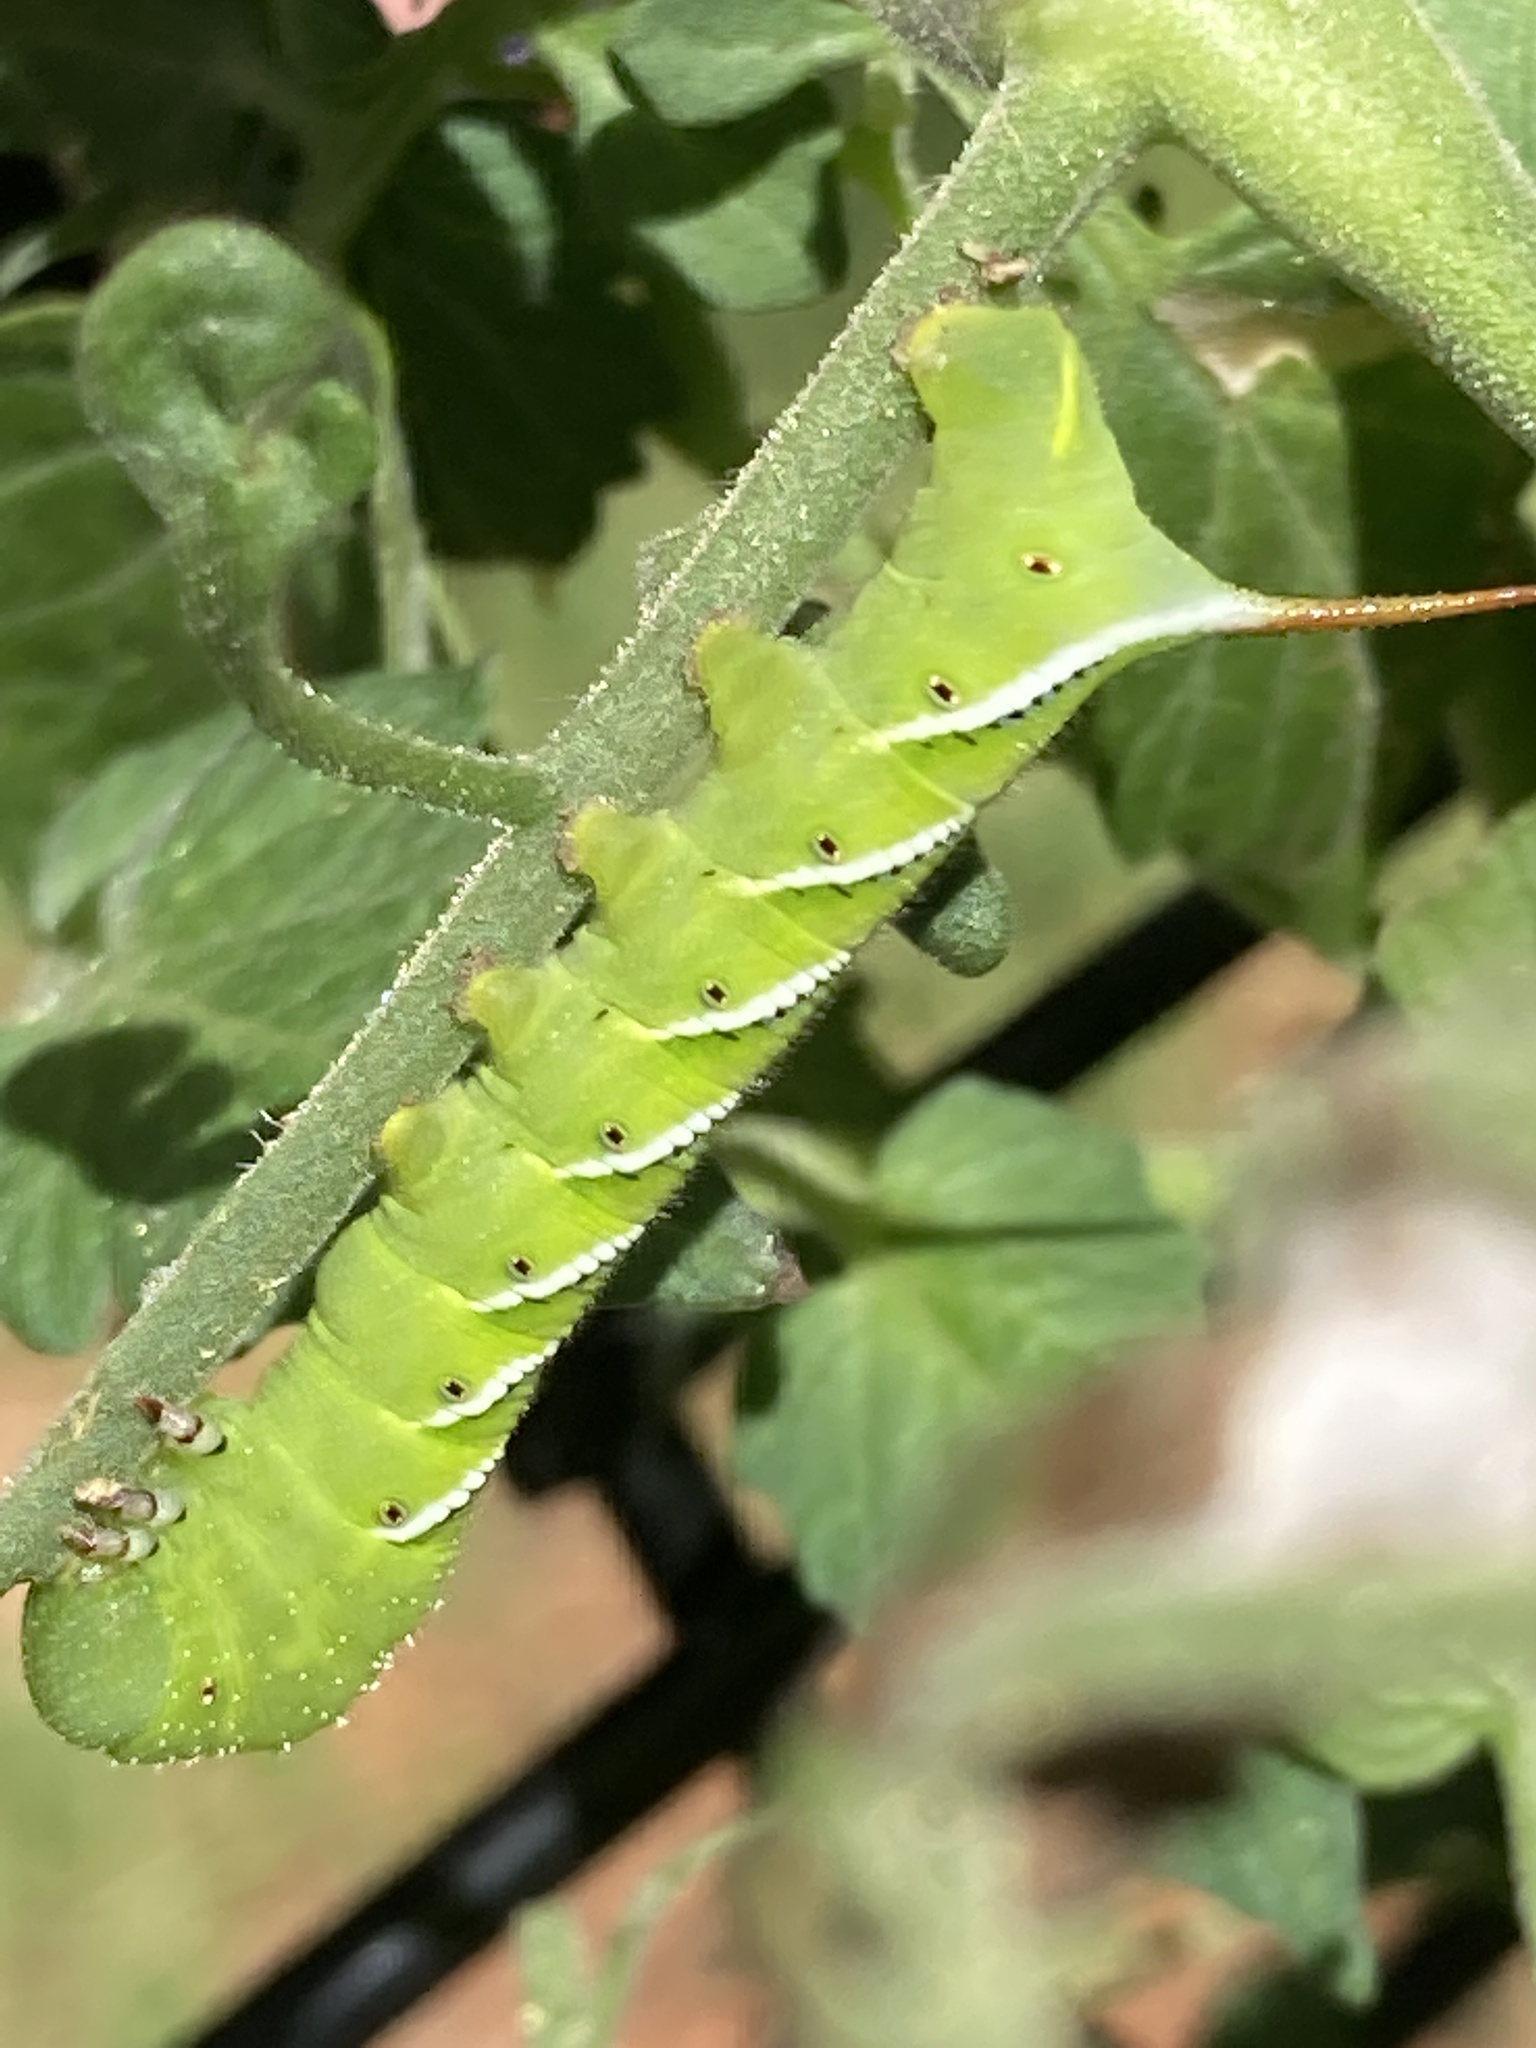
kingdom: Animalia
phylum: Arthropoda
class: Insecta
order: Lepidoptera
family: Sphingidae
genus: Manduca
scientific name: Manduca sexta
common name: Carolina sphinx
